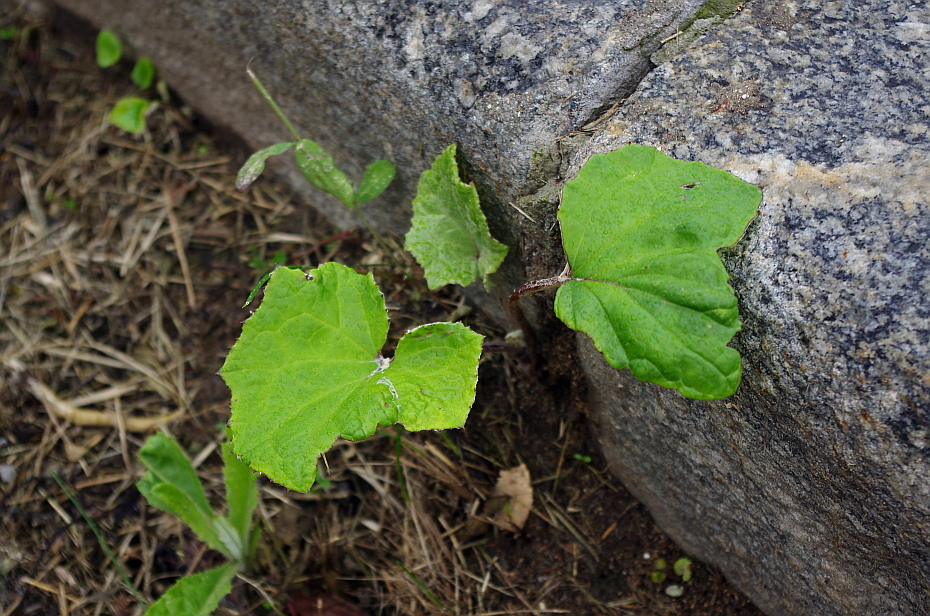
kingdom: Plantae
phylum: Tracheophyta
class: Magnoliopsida
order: Asterales
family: Asteraceae
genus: Tussilago
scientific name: Tussilago farfara
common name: Coltsfoot
